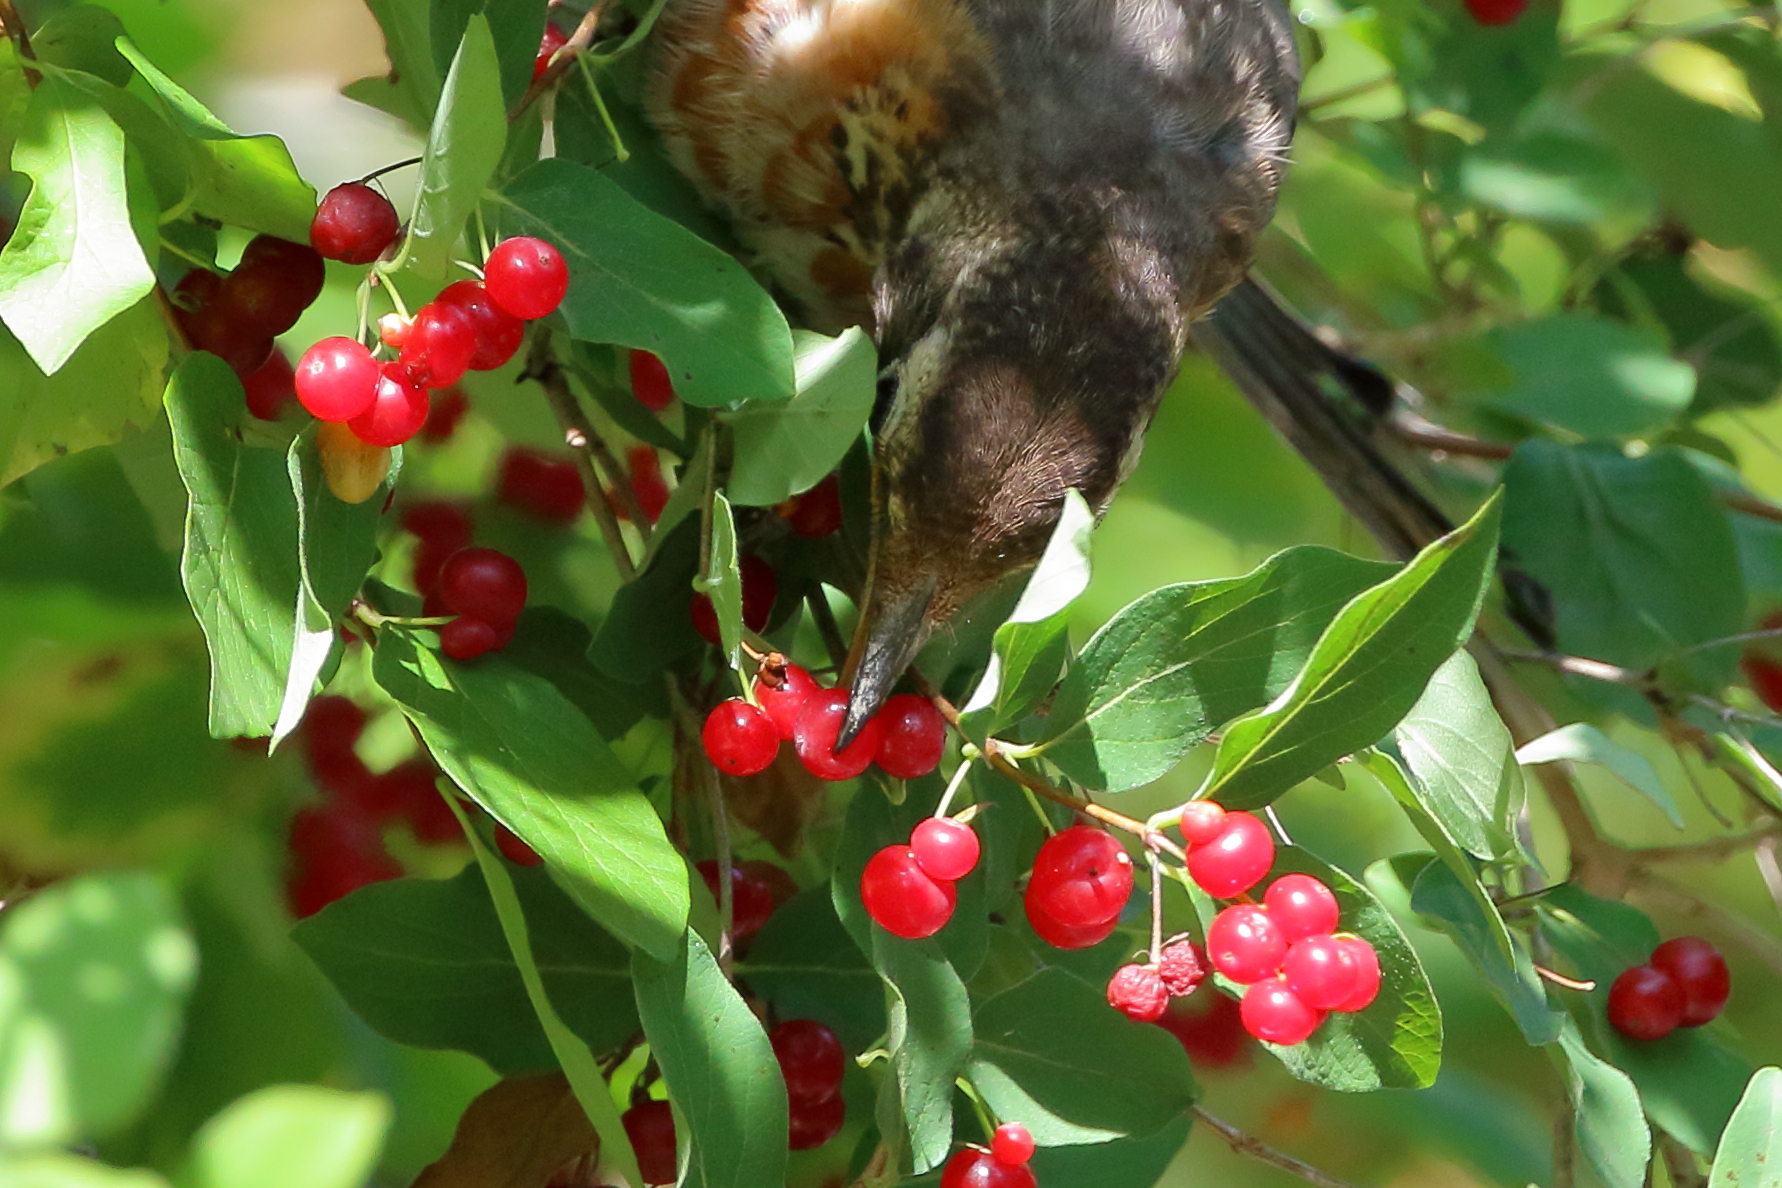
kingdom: Animalia
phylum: Chordata
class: Aves
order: Passeriformes
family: Turdidae
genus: Turdus
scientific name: Turdus migratorius
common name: American robin
